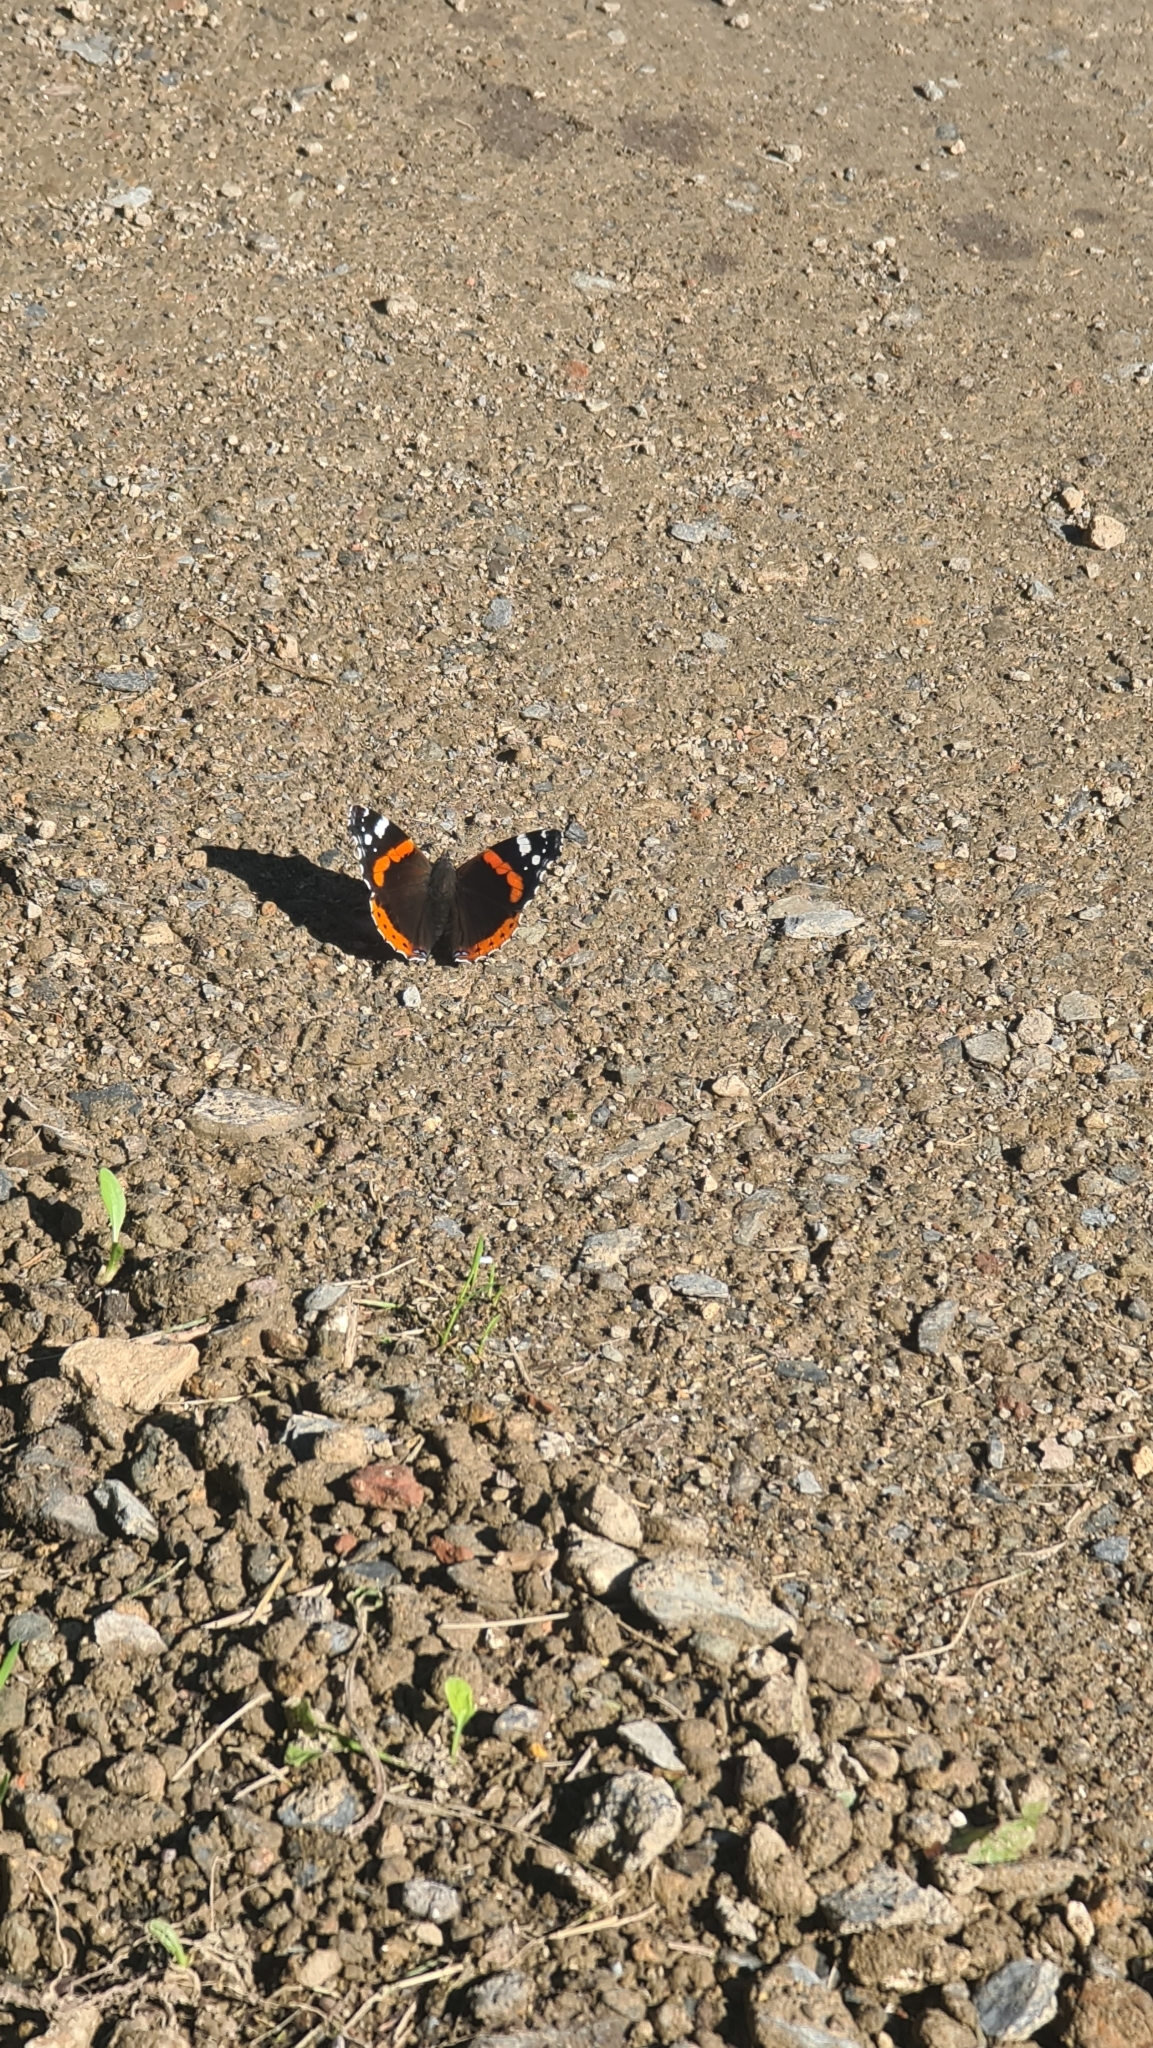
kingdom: Animalia
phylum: Arthropoda
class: Insecta
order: Lepidoptera
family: Nymphalidae
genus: Vanessa
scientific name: Vanessa atalanta
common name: Red admiral
